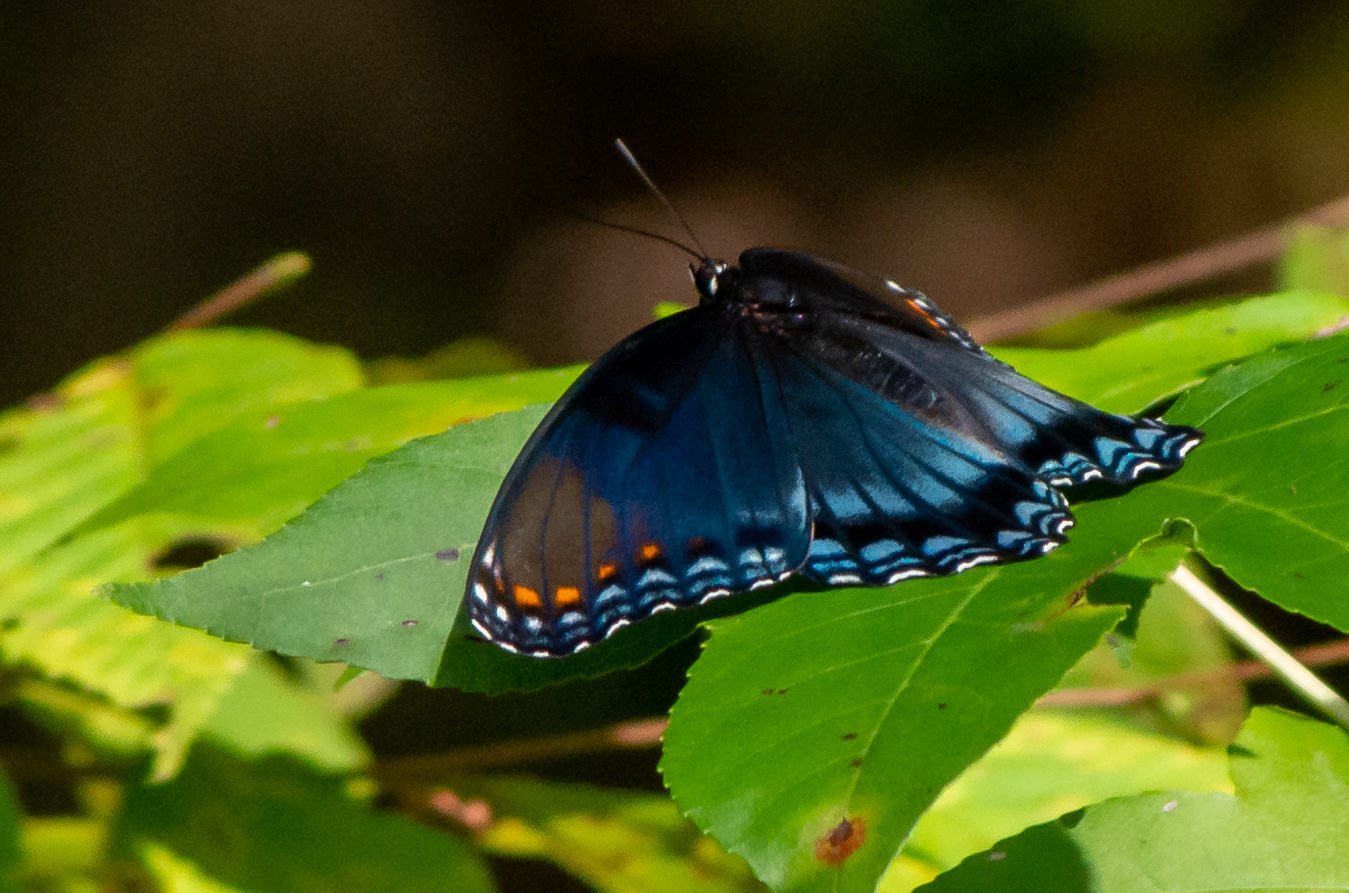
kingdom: Animalia
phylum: Arthropoda
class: Insecta
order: Lepidoptera
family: Nymphalidae
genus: Limenitis
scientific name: Limenitis astyanax
